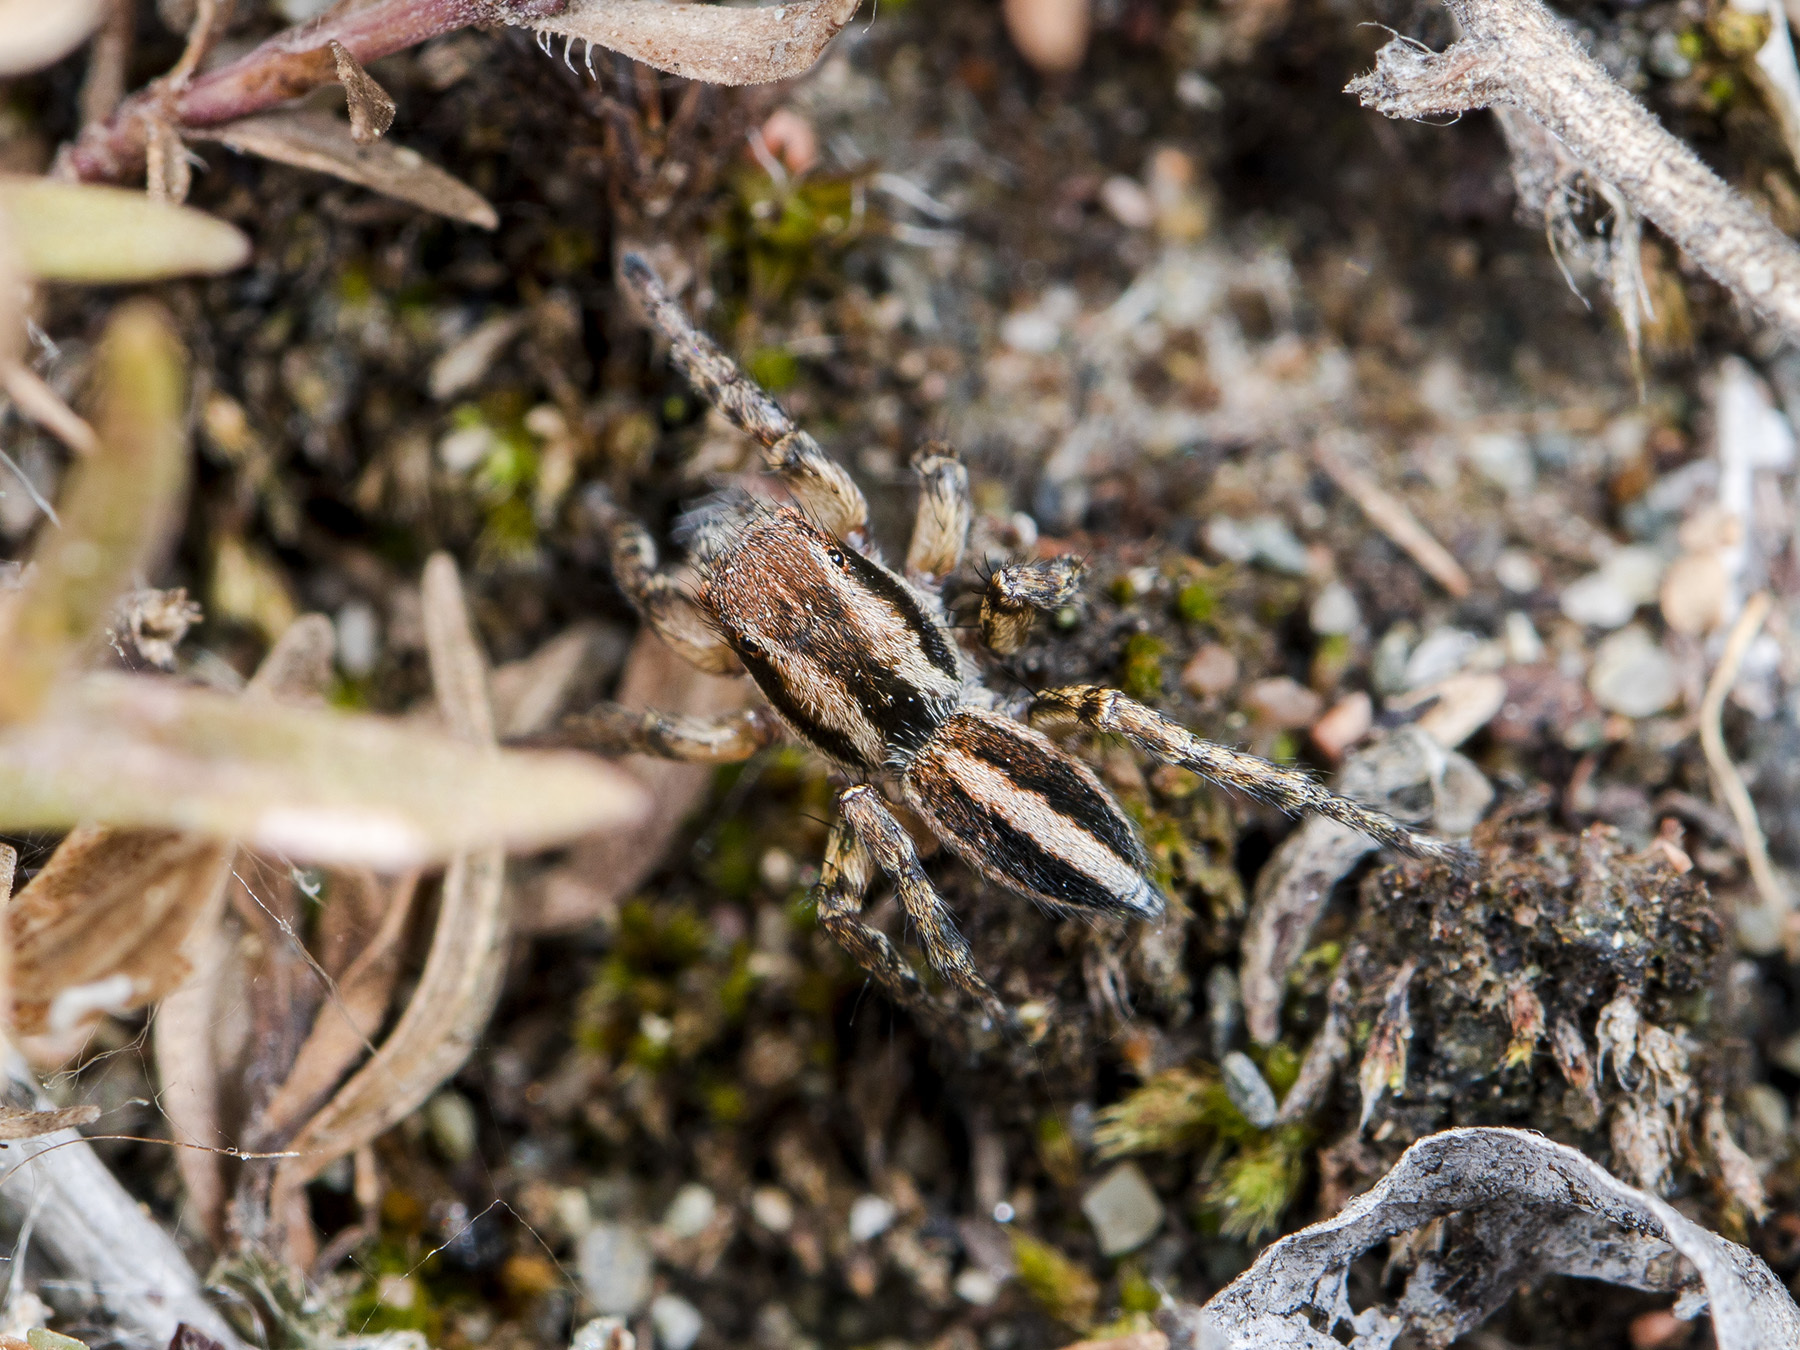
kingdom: Animalia
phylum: Arthropoda
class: Arachnida
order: Araneae
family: Salticidae
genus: Phlegra
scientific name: Phlegra fasciata
